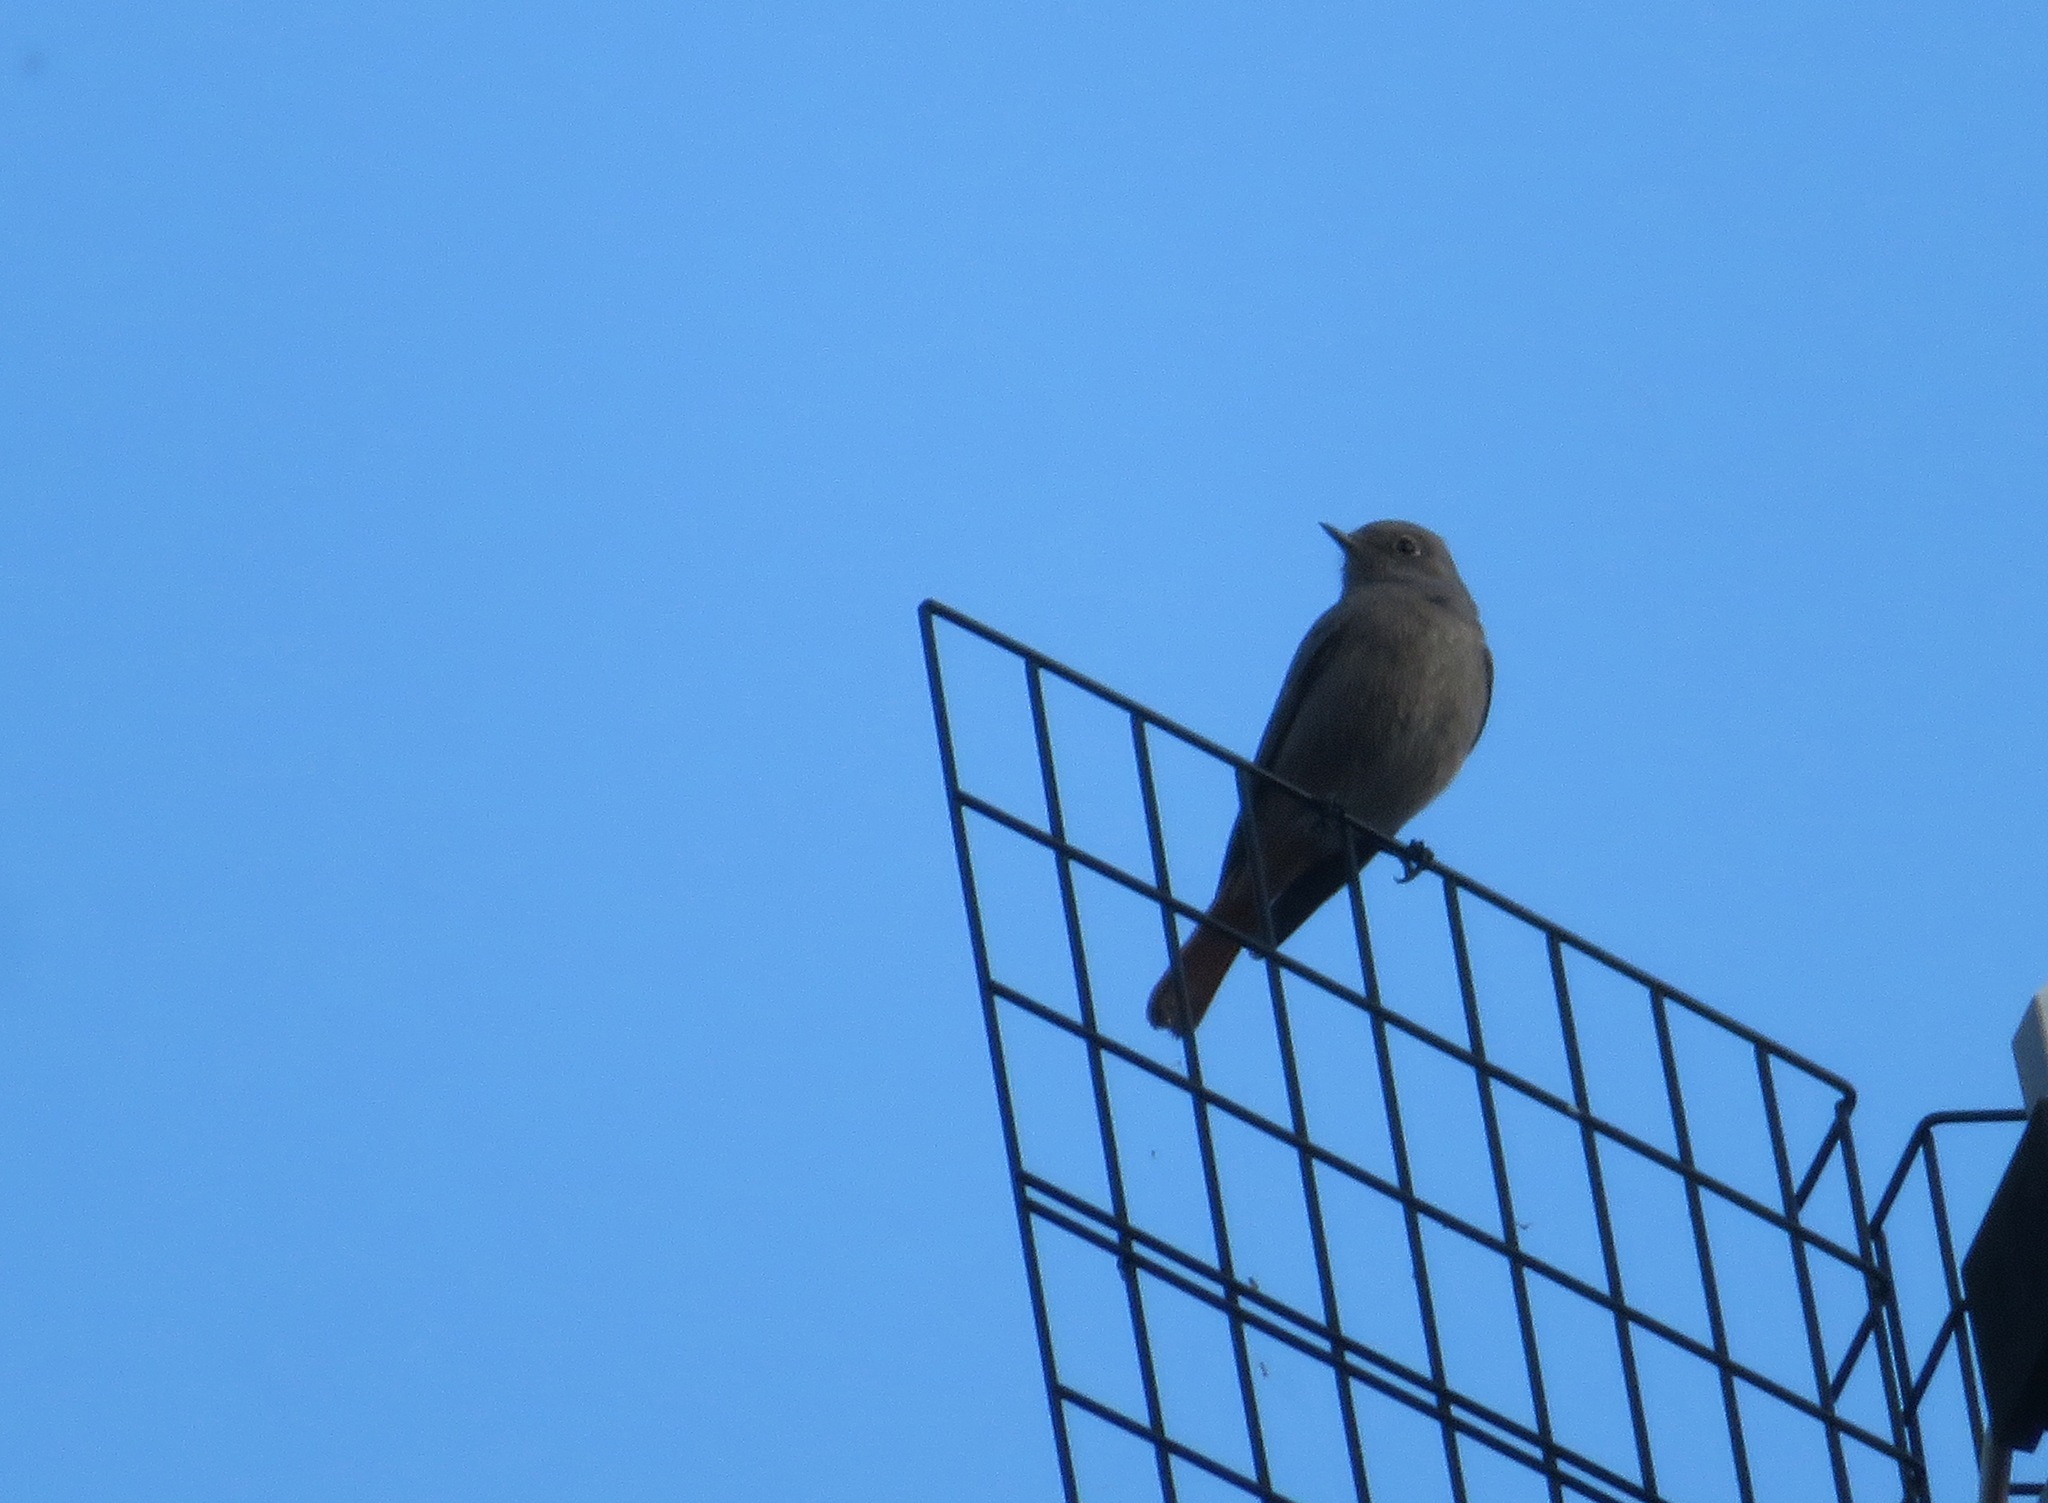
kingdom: Animalia
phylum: Chordata
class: Aves
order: Passeriformes
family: Muscicapidae
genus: Phoenicurus
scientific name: Phoenicurus ochruros
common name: Black redstart
